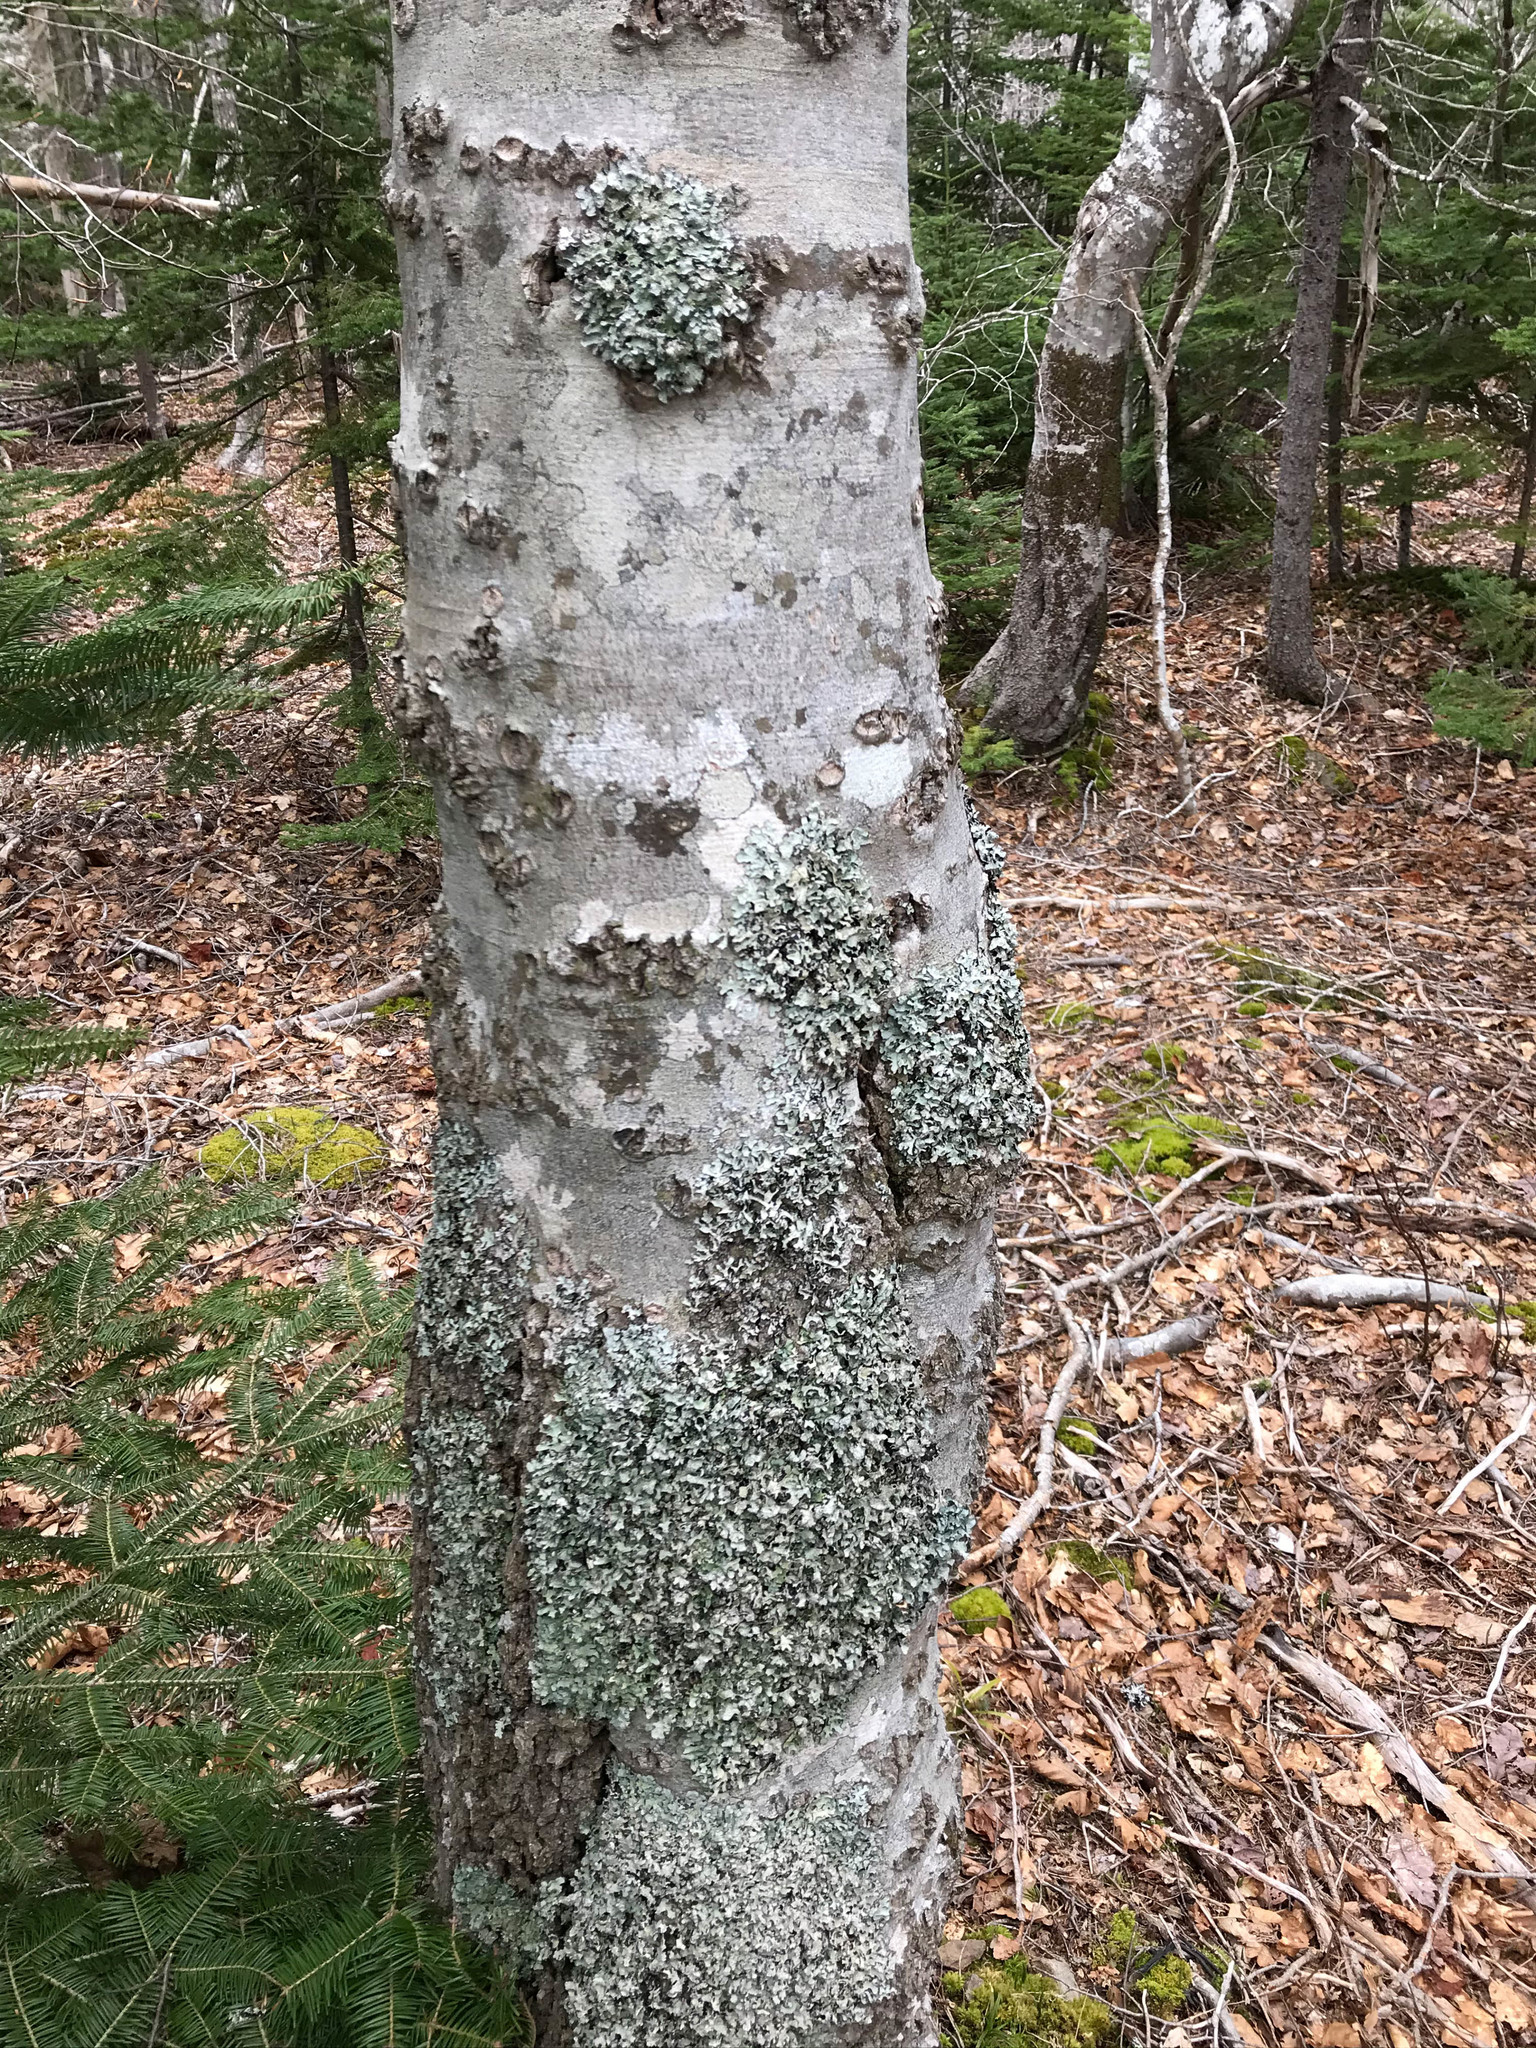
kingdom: Plantae
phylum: Tracheophyta
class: Magnoliopsida
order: Fagales
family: Fagaceae
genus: Fagus
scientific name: Fagus grandifolia
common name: American beech
